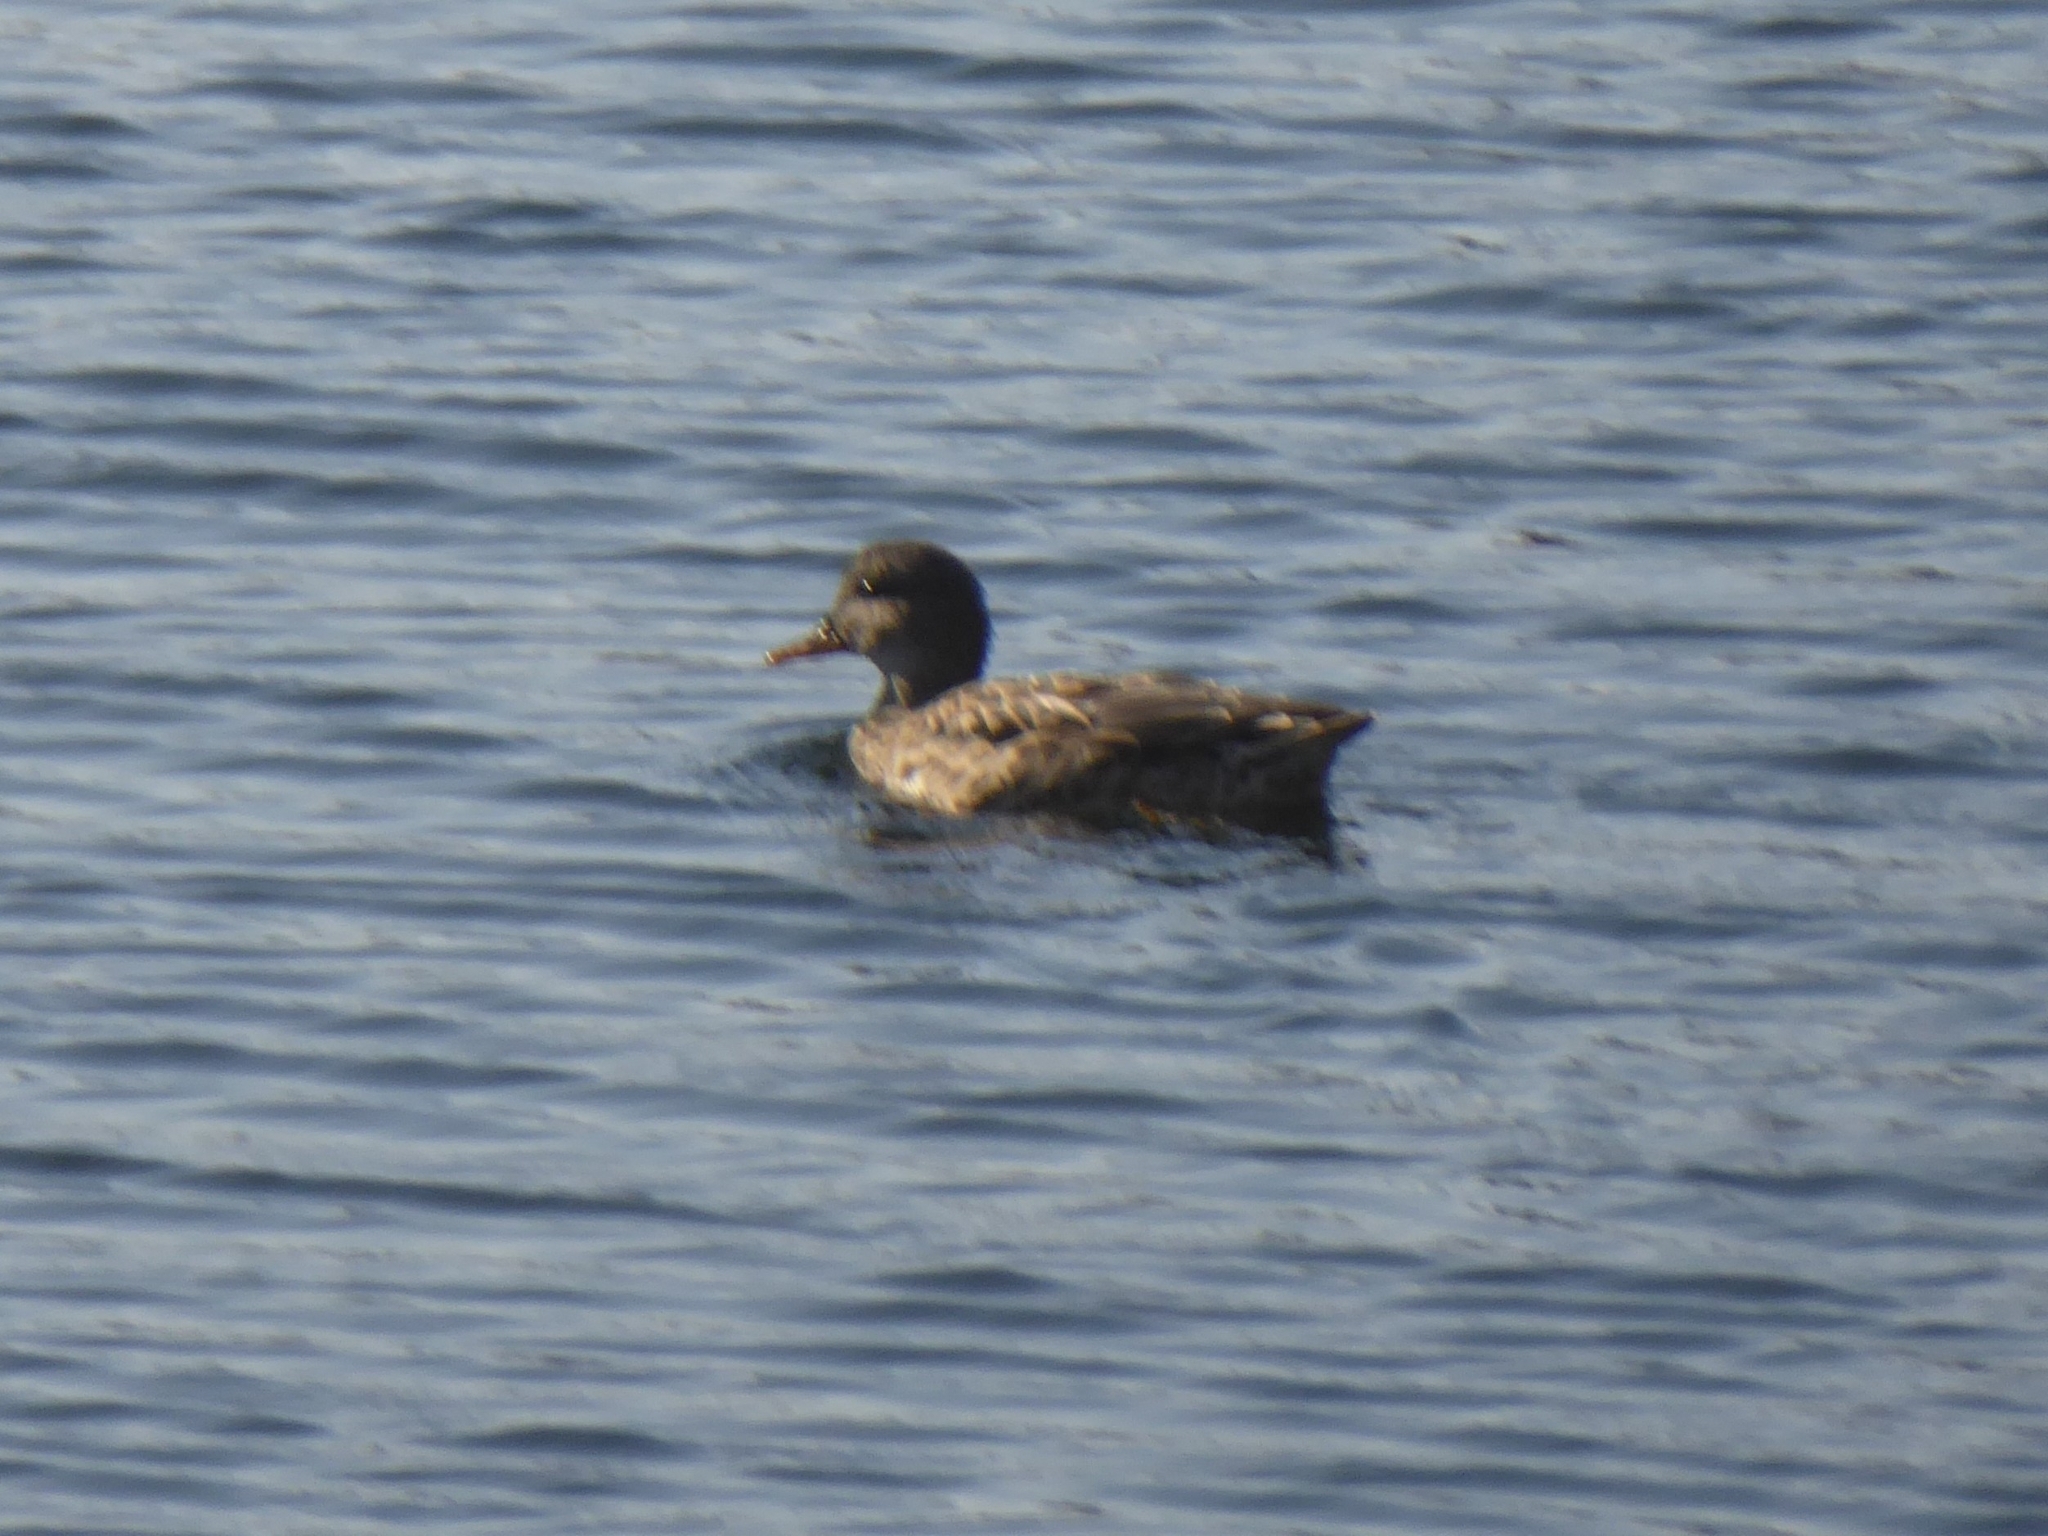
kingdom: Animalia
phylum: Chordata
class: Aves
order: Anseriformes
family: Anatidae
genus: Mareca
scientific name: Mareca strepera
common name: Gadwall
